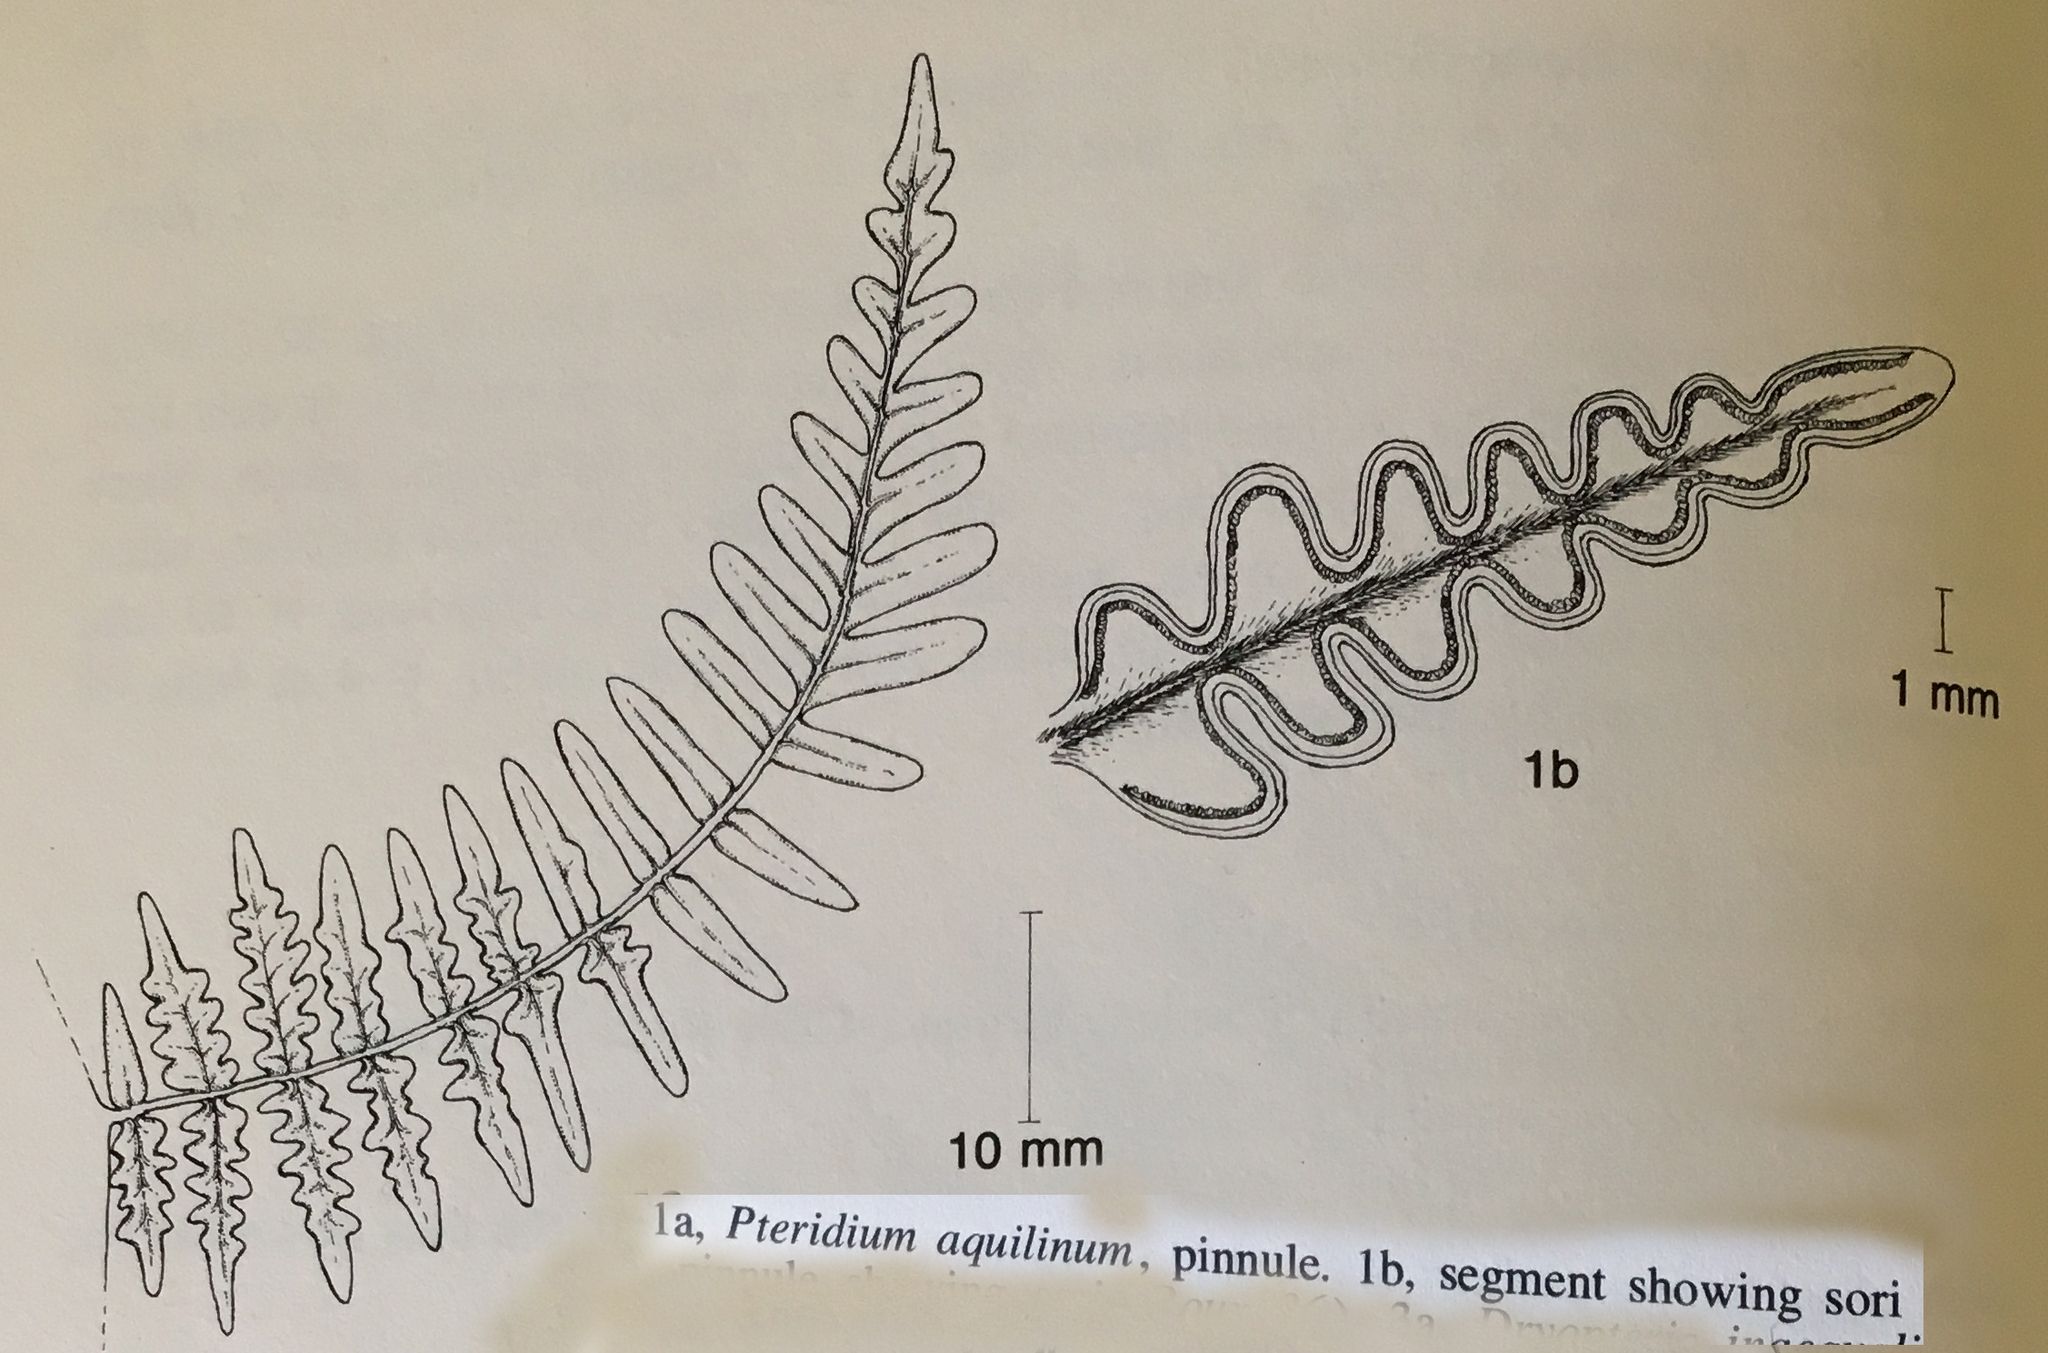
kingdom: Plantae
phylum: Tracheophyta
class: Polypodiopsida
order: Polypodiales
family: Dennstaedtiaceae
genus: Pteridium
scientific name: Pteridium aquilinum
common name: Bracken
